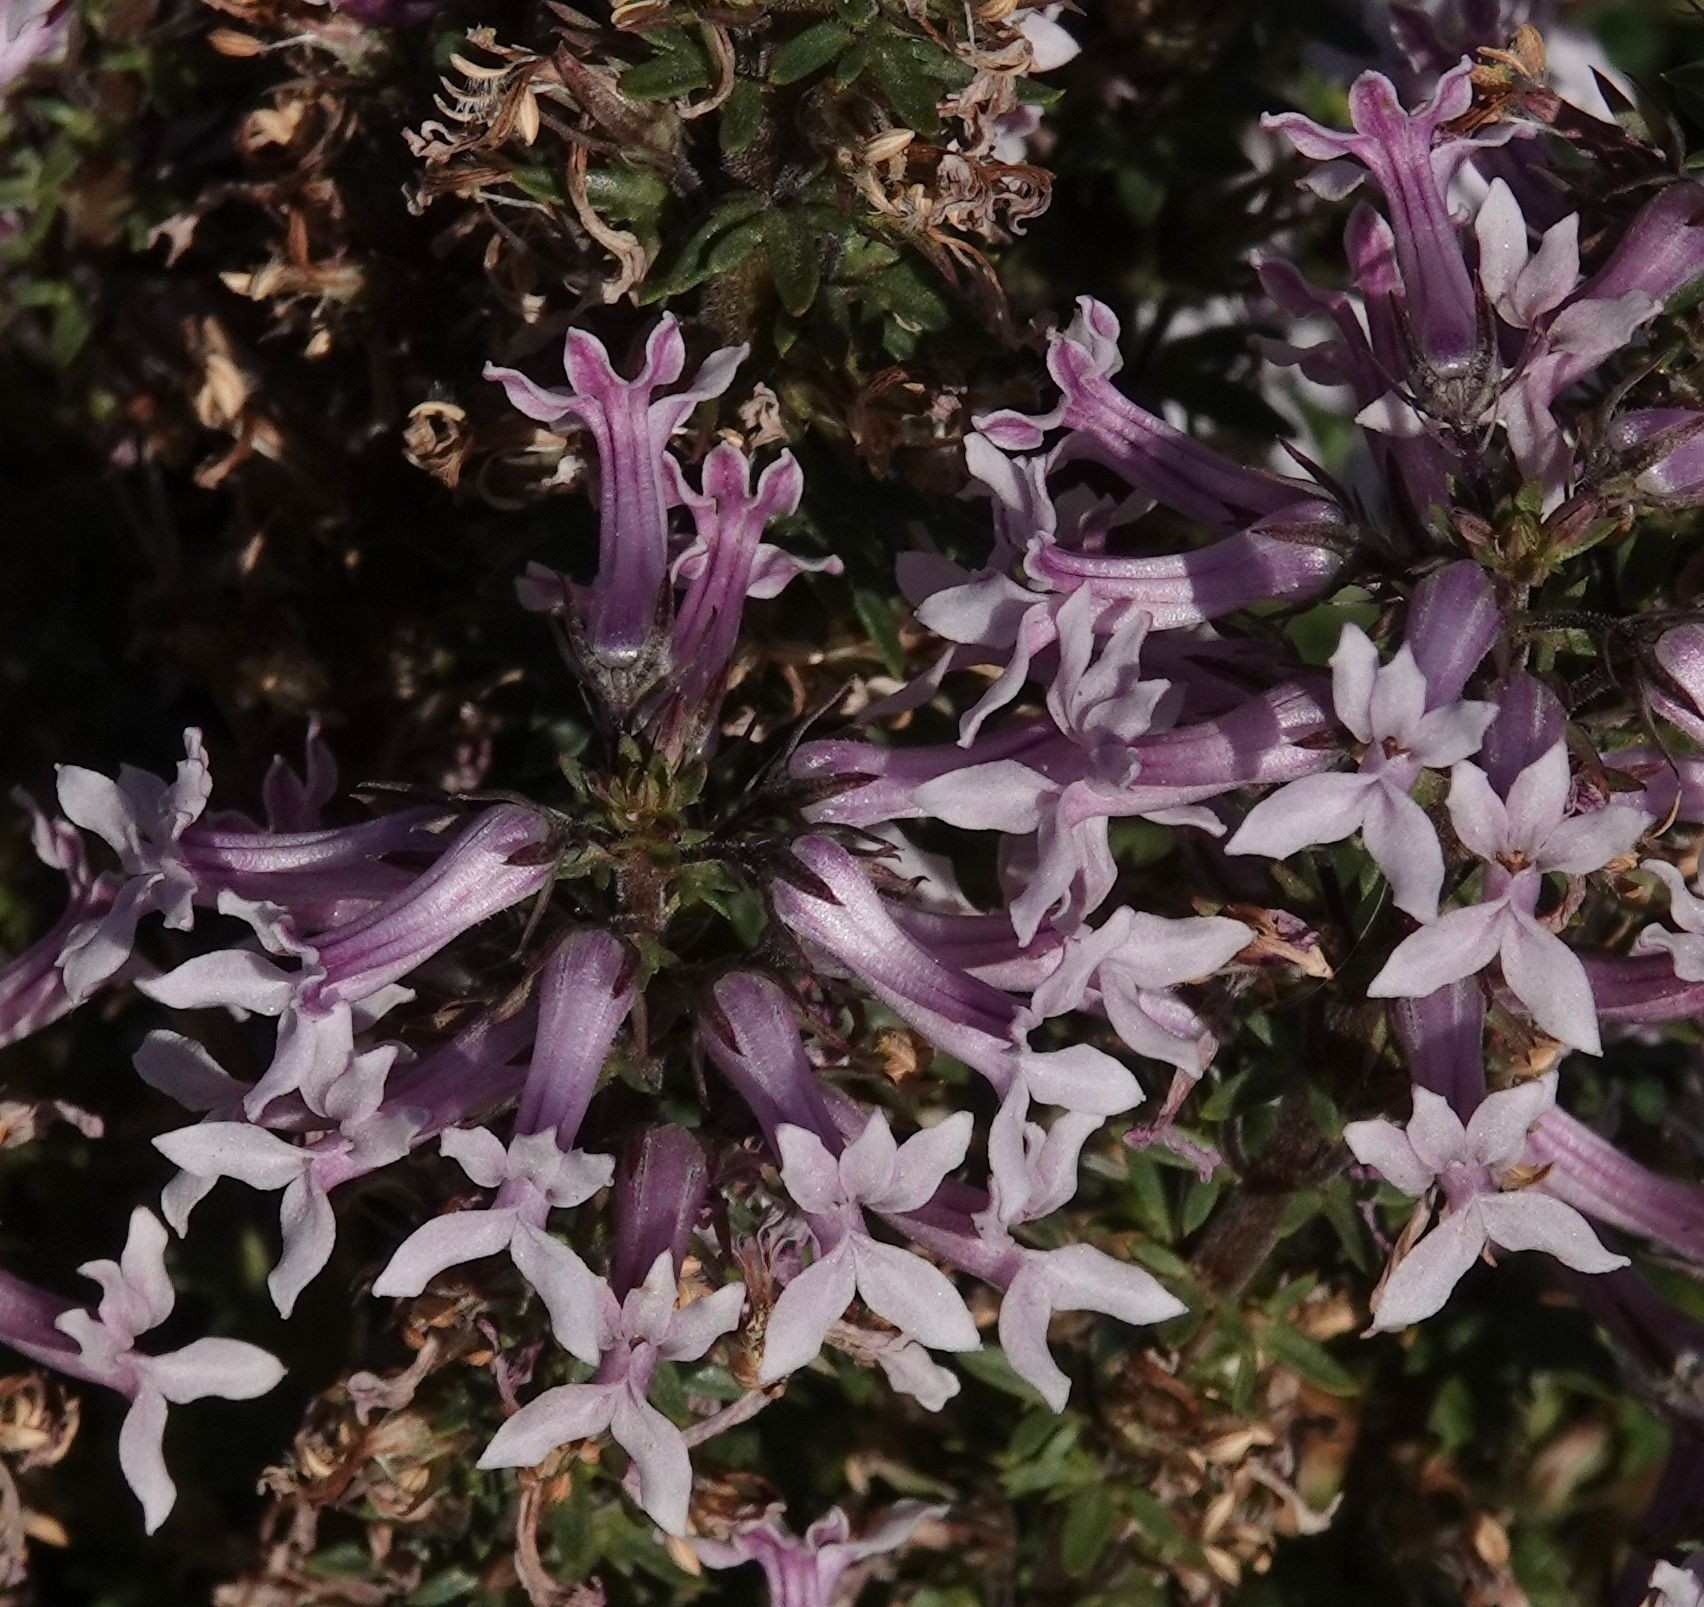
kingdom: Plantae
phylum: Tracheophyta
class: Magnoliopsida
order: Asterales
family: Campanulaceae
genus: Cyphia
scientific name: Cyphia bulbosa
